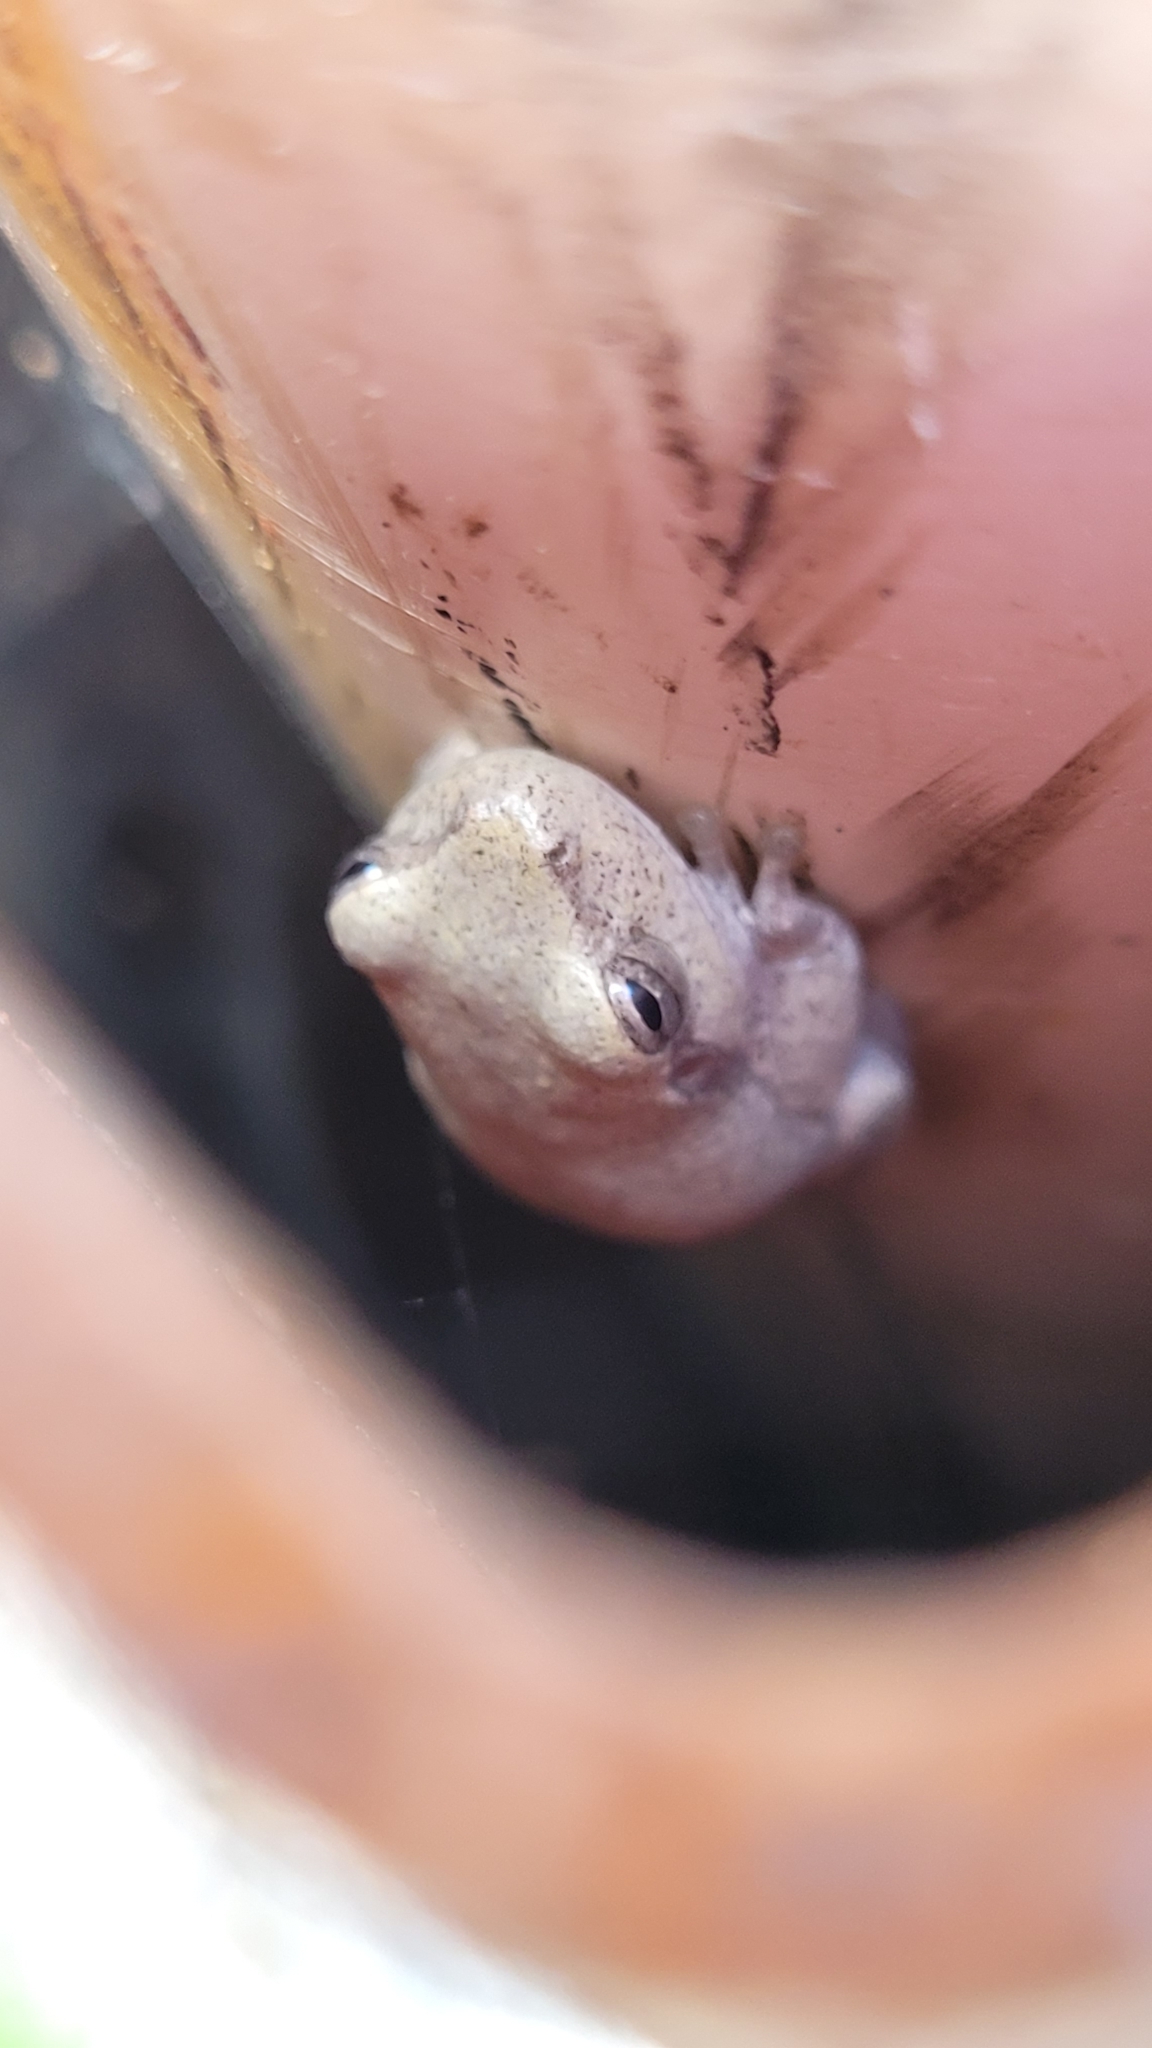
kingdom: Animalia
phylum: Chordata
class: Amphibia
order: Anura
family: Hylidae
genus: Hyla
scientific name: Hyla femoralis
